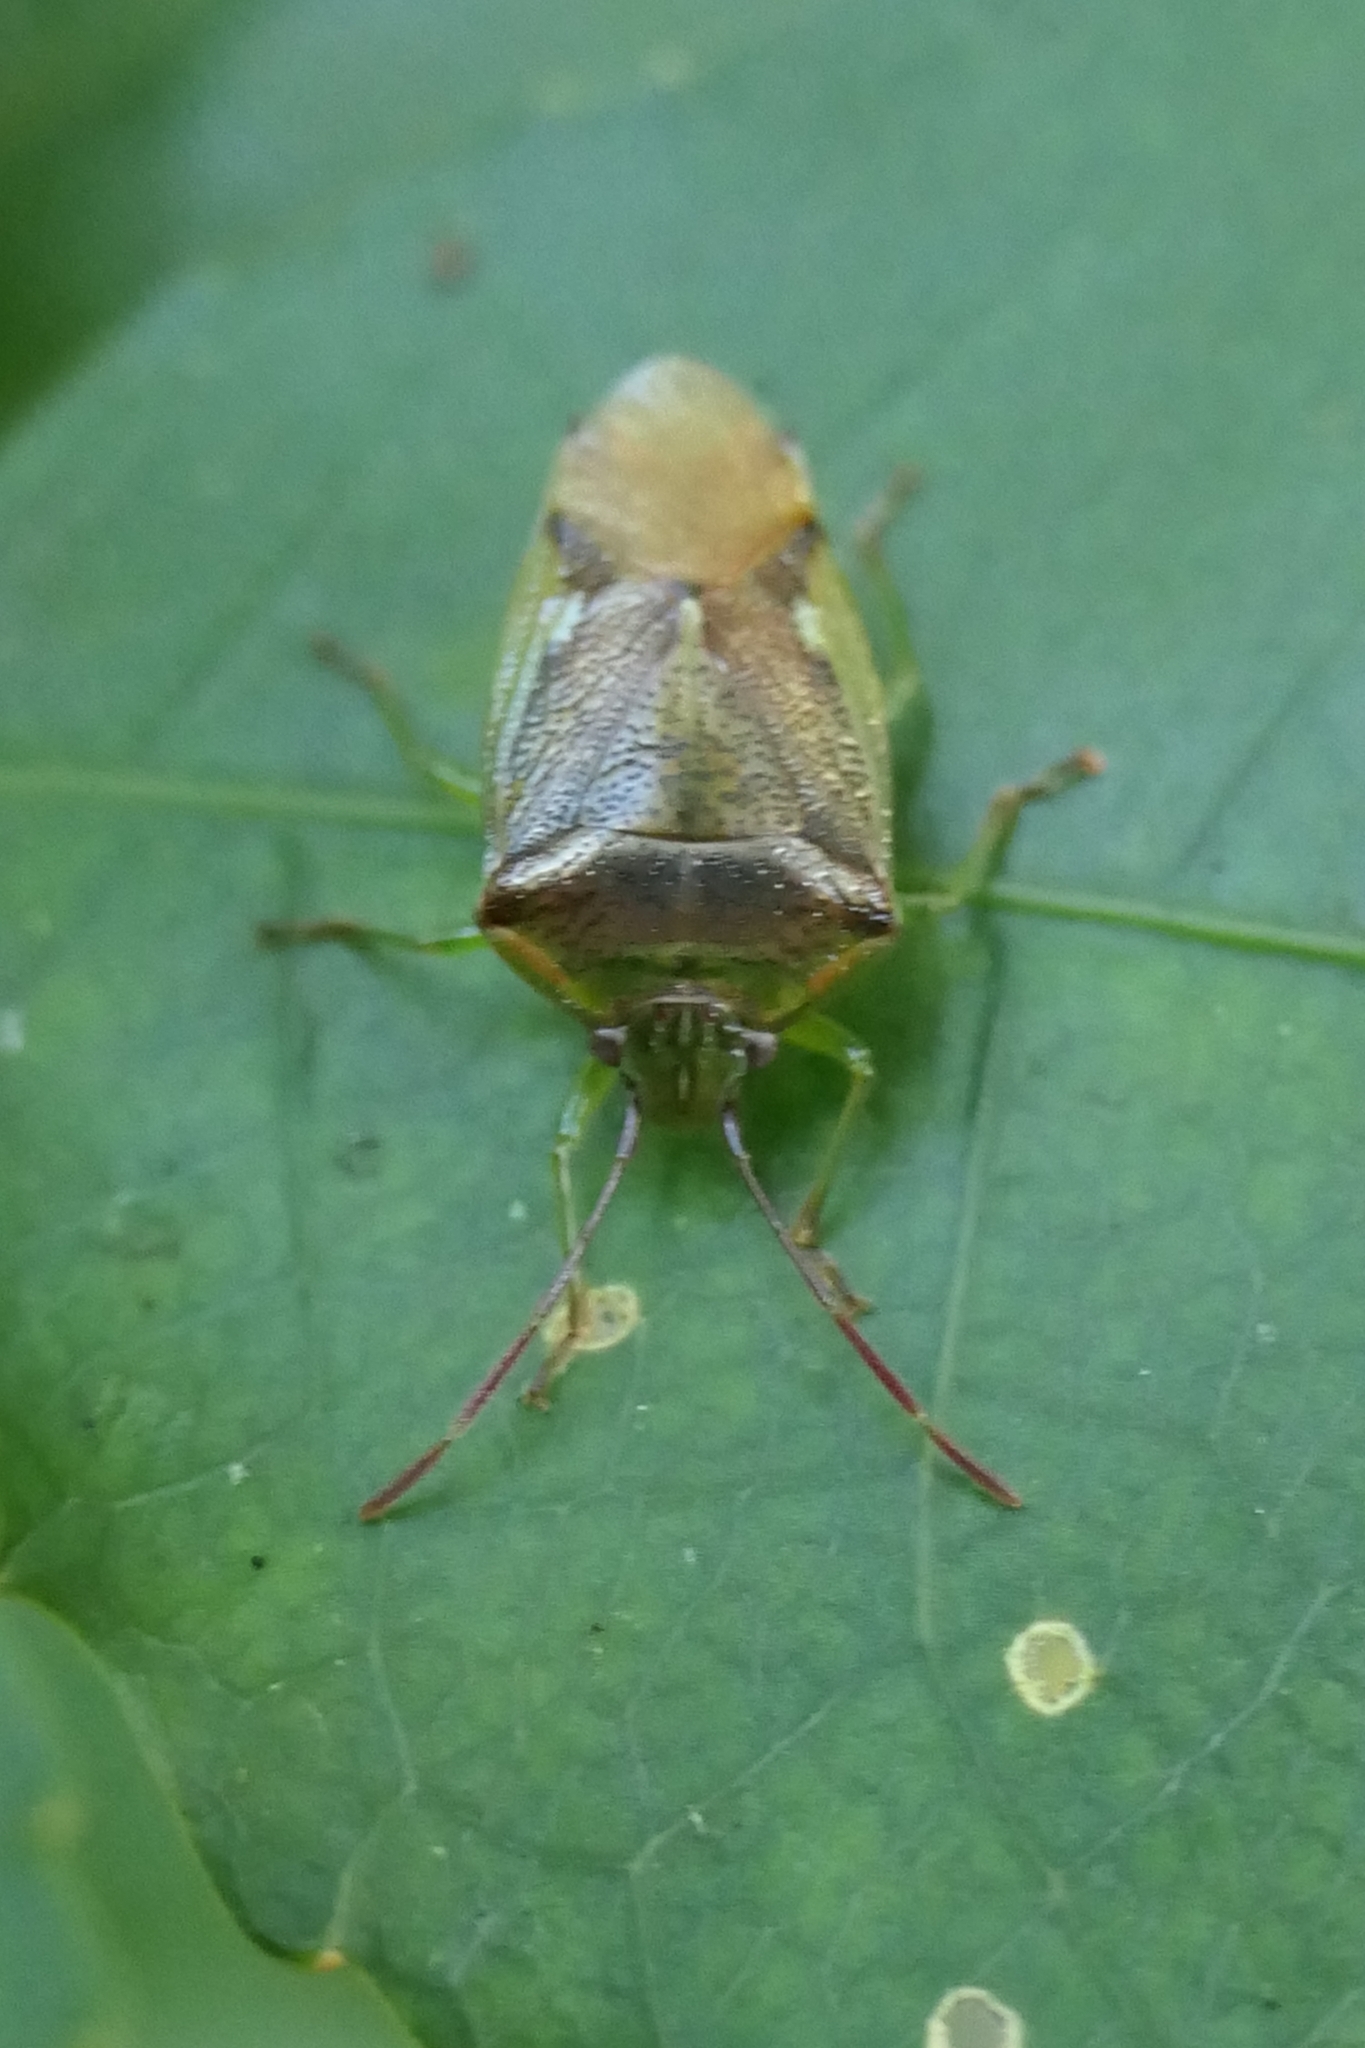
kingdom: Animalia
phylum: Arthropoda
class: Insecta
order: Hemiptera
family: Acanthosomatidae
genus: Oncacontias
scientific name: Oncacontias vittatus
